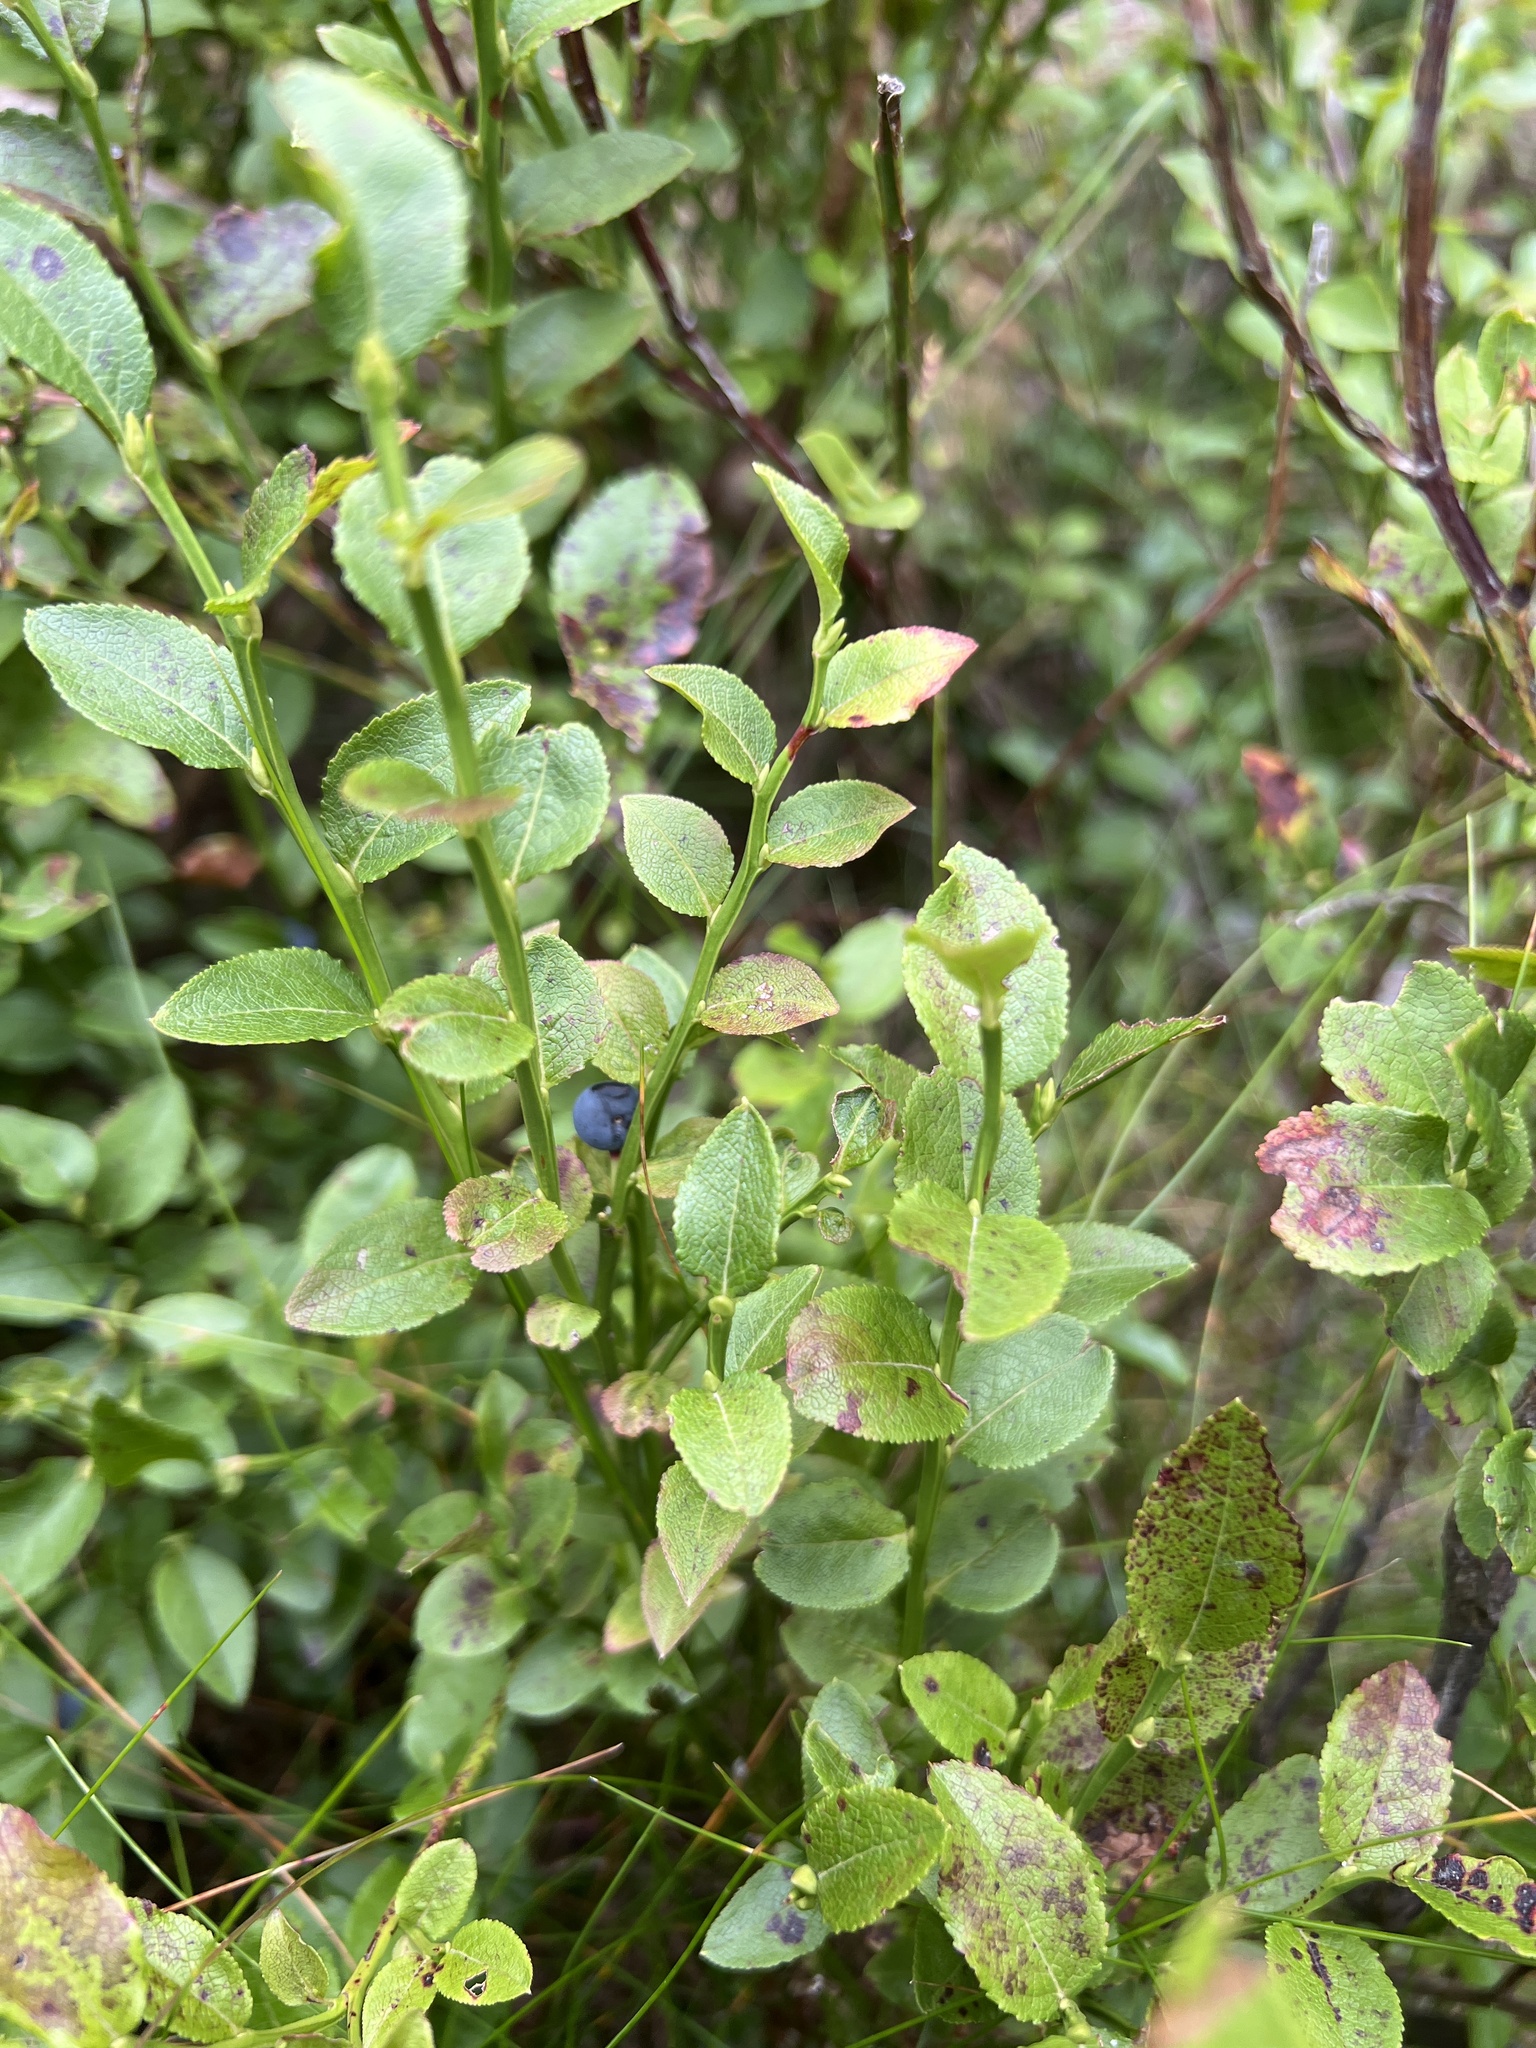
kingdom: Plantae
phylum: Tracheophyta
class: Magnoliopsida
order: Ericales
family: Ericaceae
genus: Vaccinium
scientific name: Vaccinium myrtillus
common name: Bilberry
